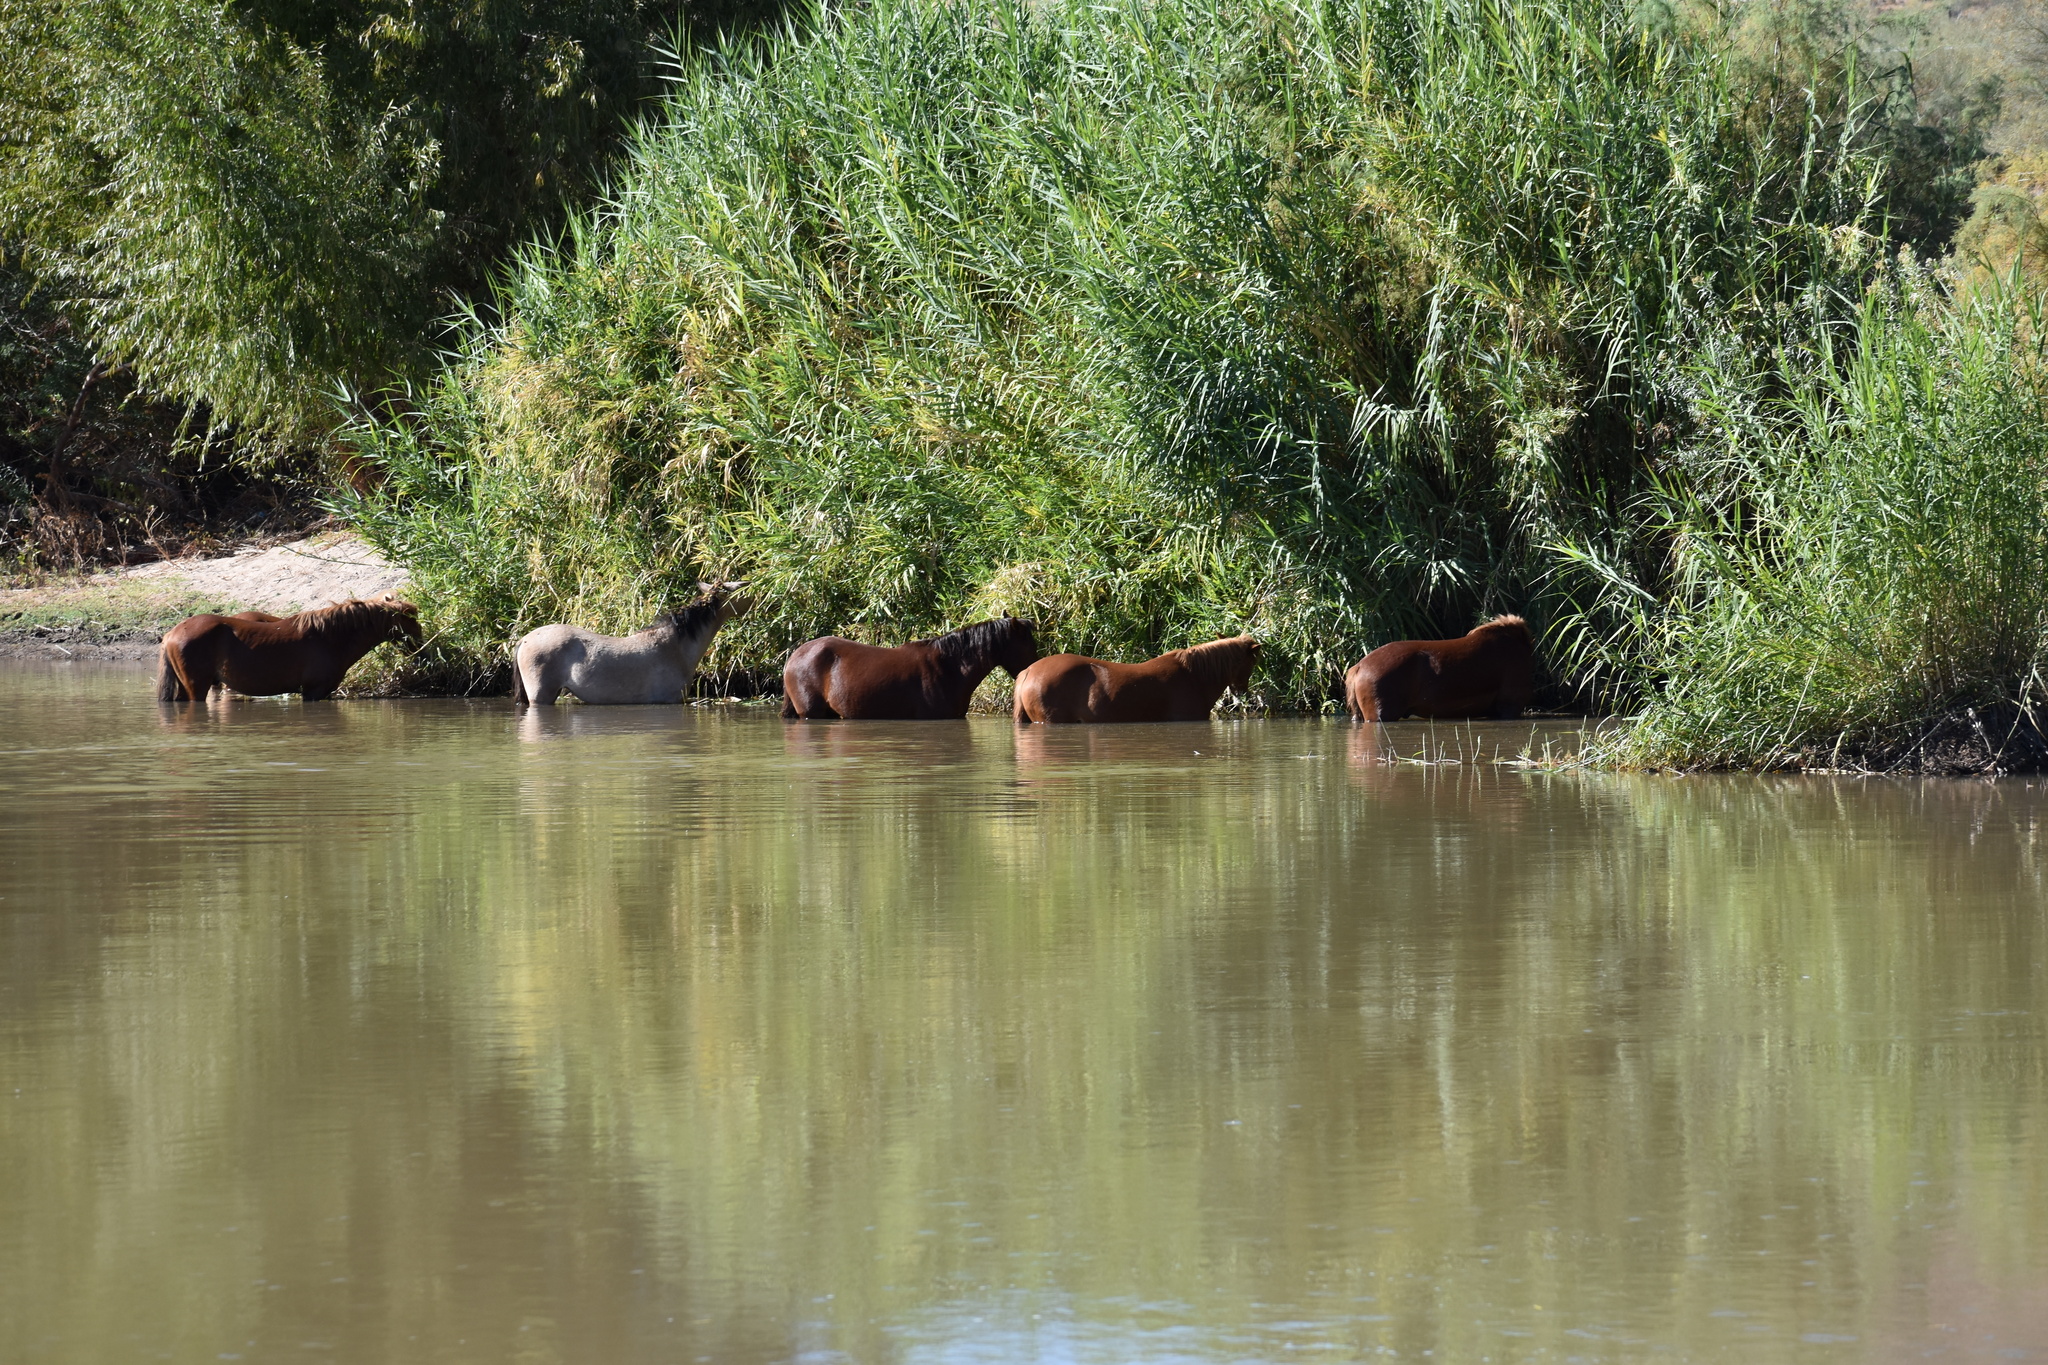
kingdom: Animalia
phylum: Chordata
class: Mammalia
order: Perissodactyla
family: Equidae
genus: Equus
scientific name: Equus caballus
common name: Horse
